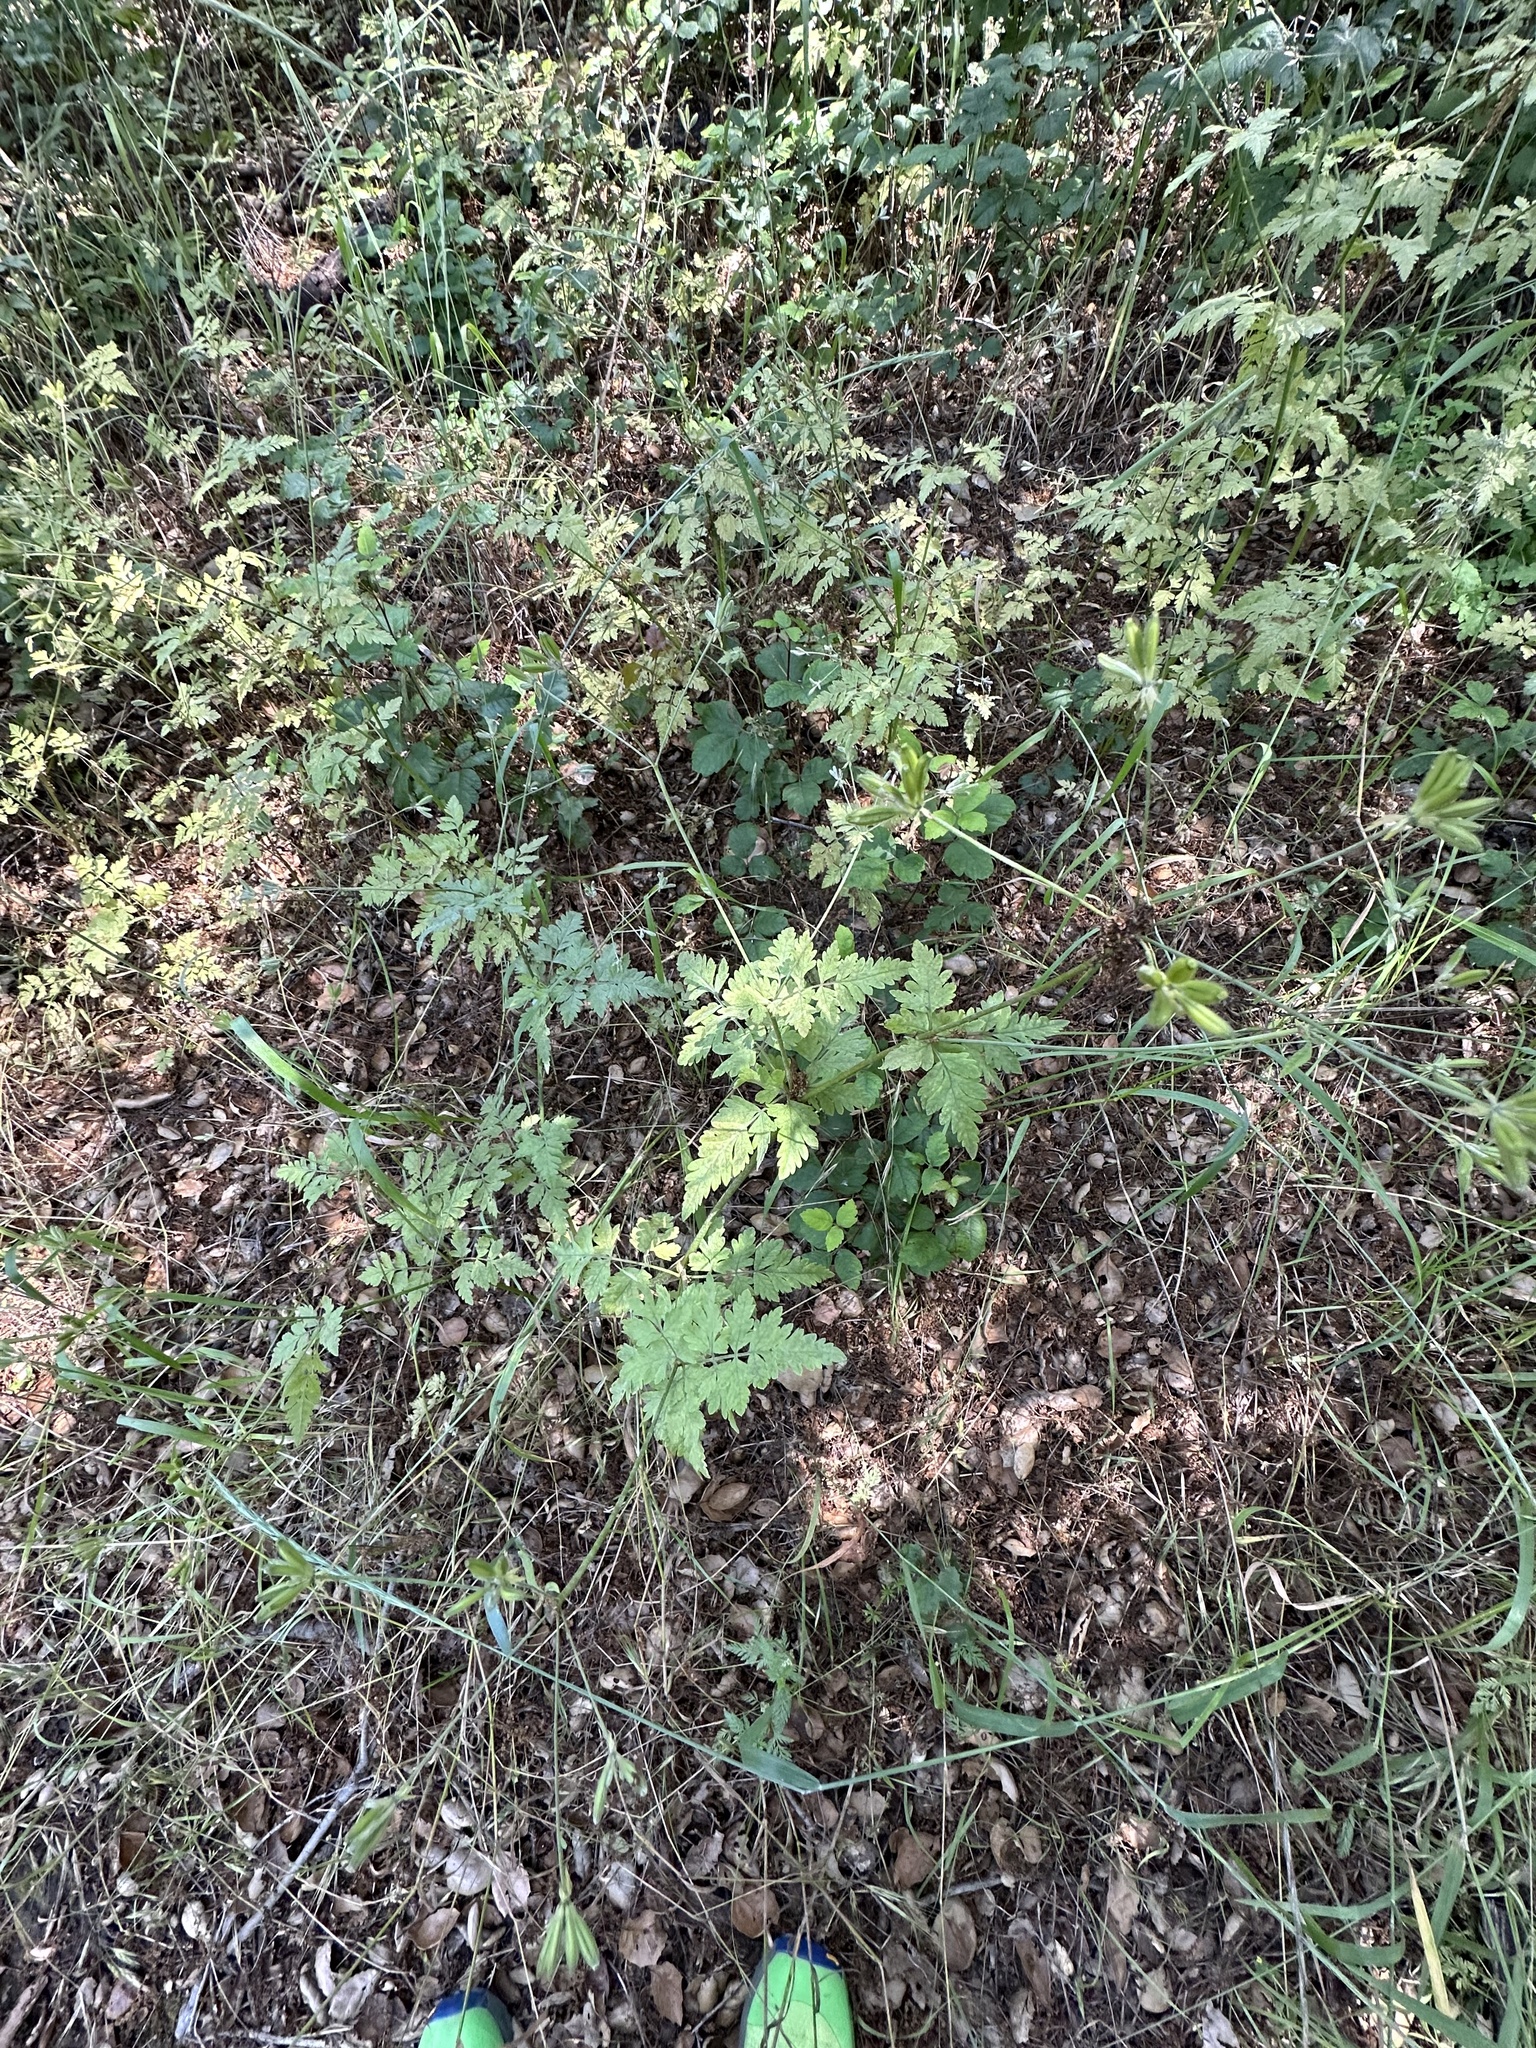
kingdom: Plantae
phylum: Tracheophyta
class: Magnoliopsida
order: Apiales
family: Apiaceae
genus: Osmorhiza
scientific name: Osmorhiza brachypoda
